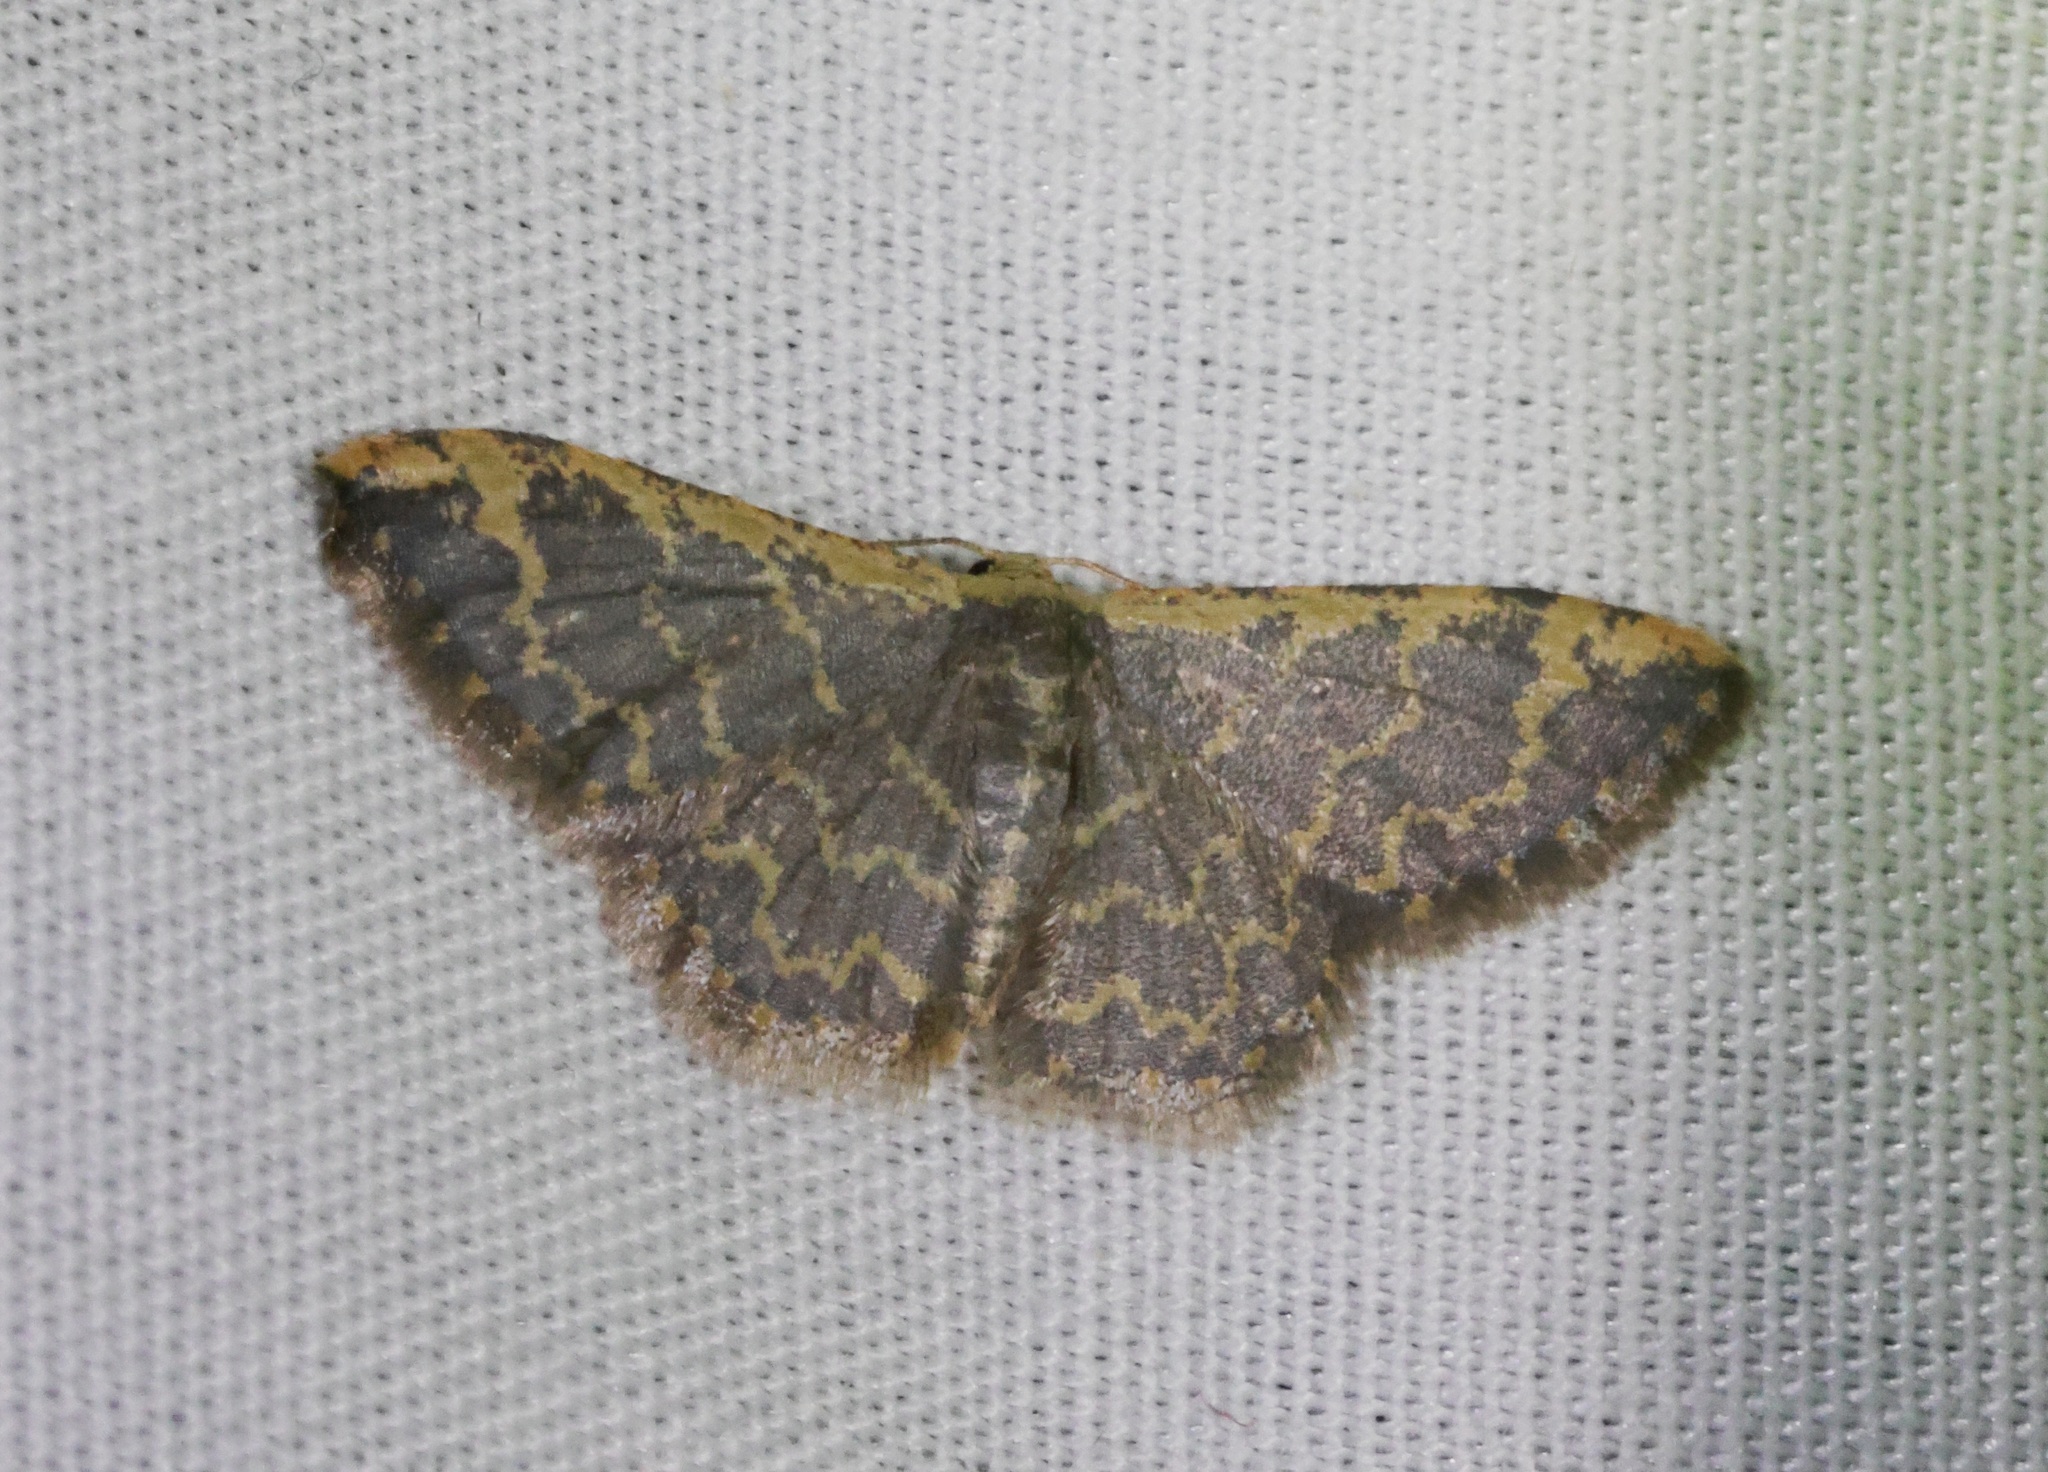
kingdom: Animalia
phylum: Arthropoda
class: Insecta
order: Lepidoptera
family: Geometridae
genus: Idaea
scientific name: Idaea costiguttata
